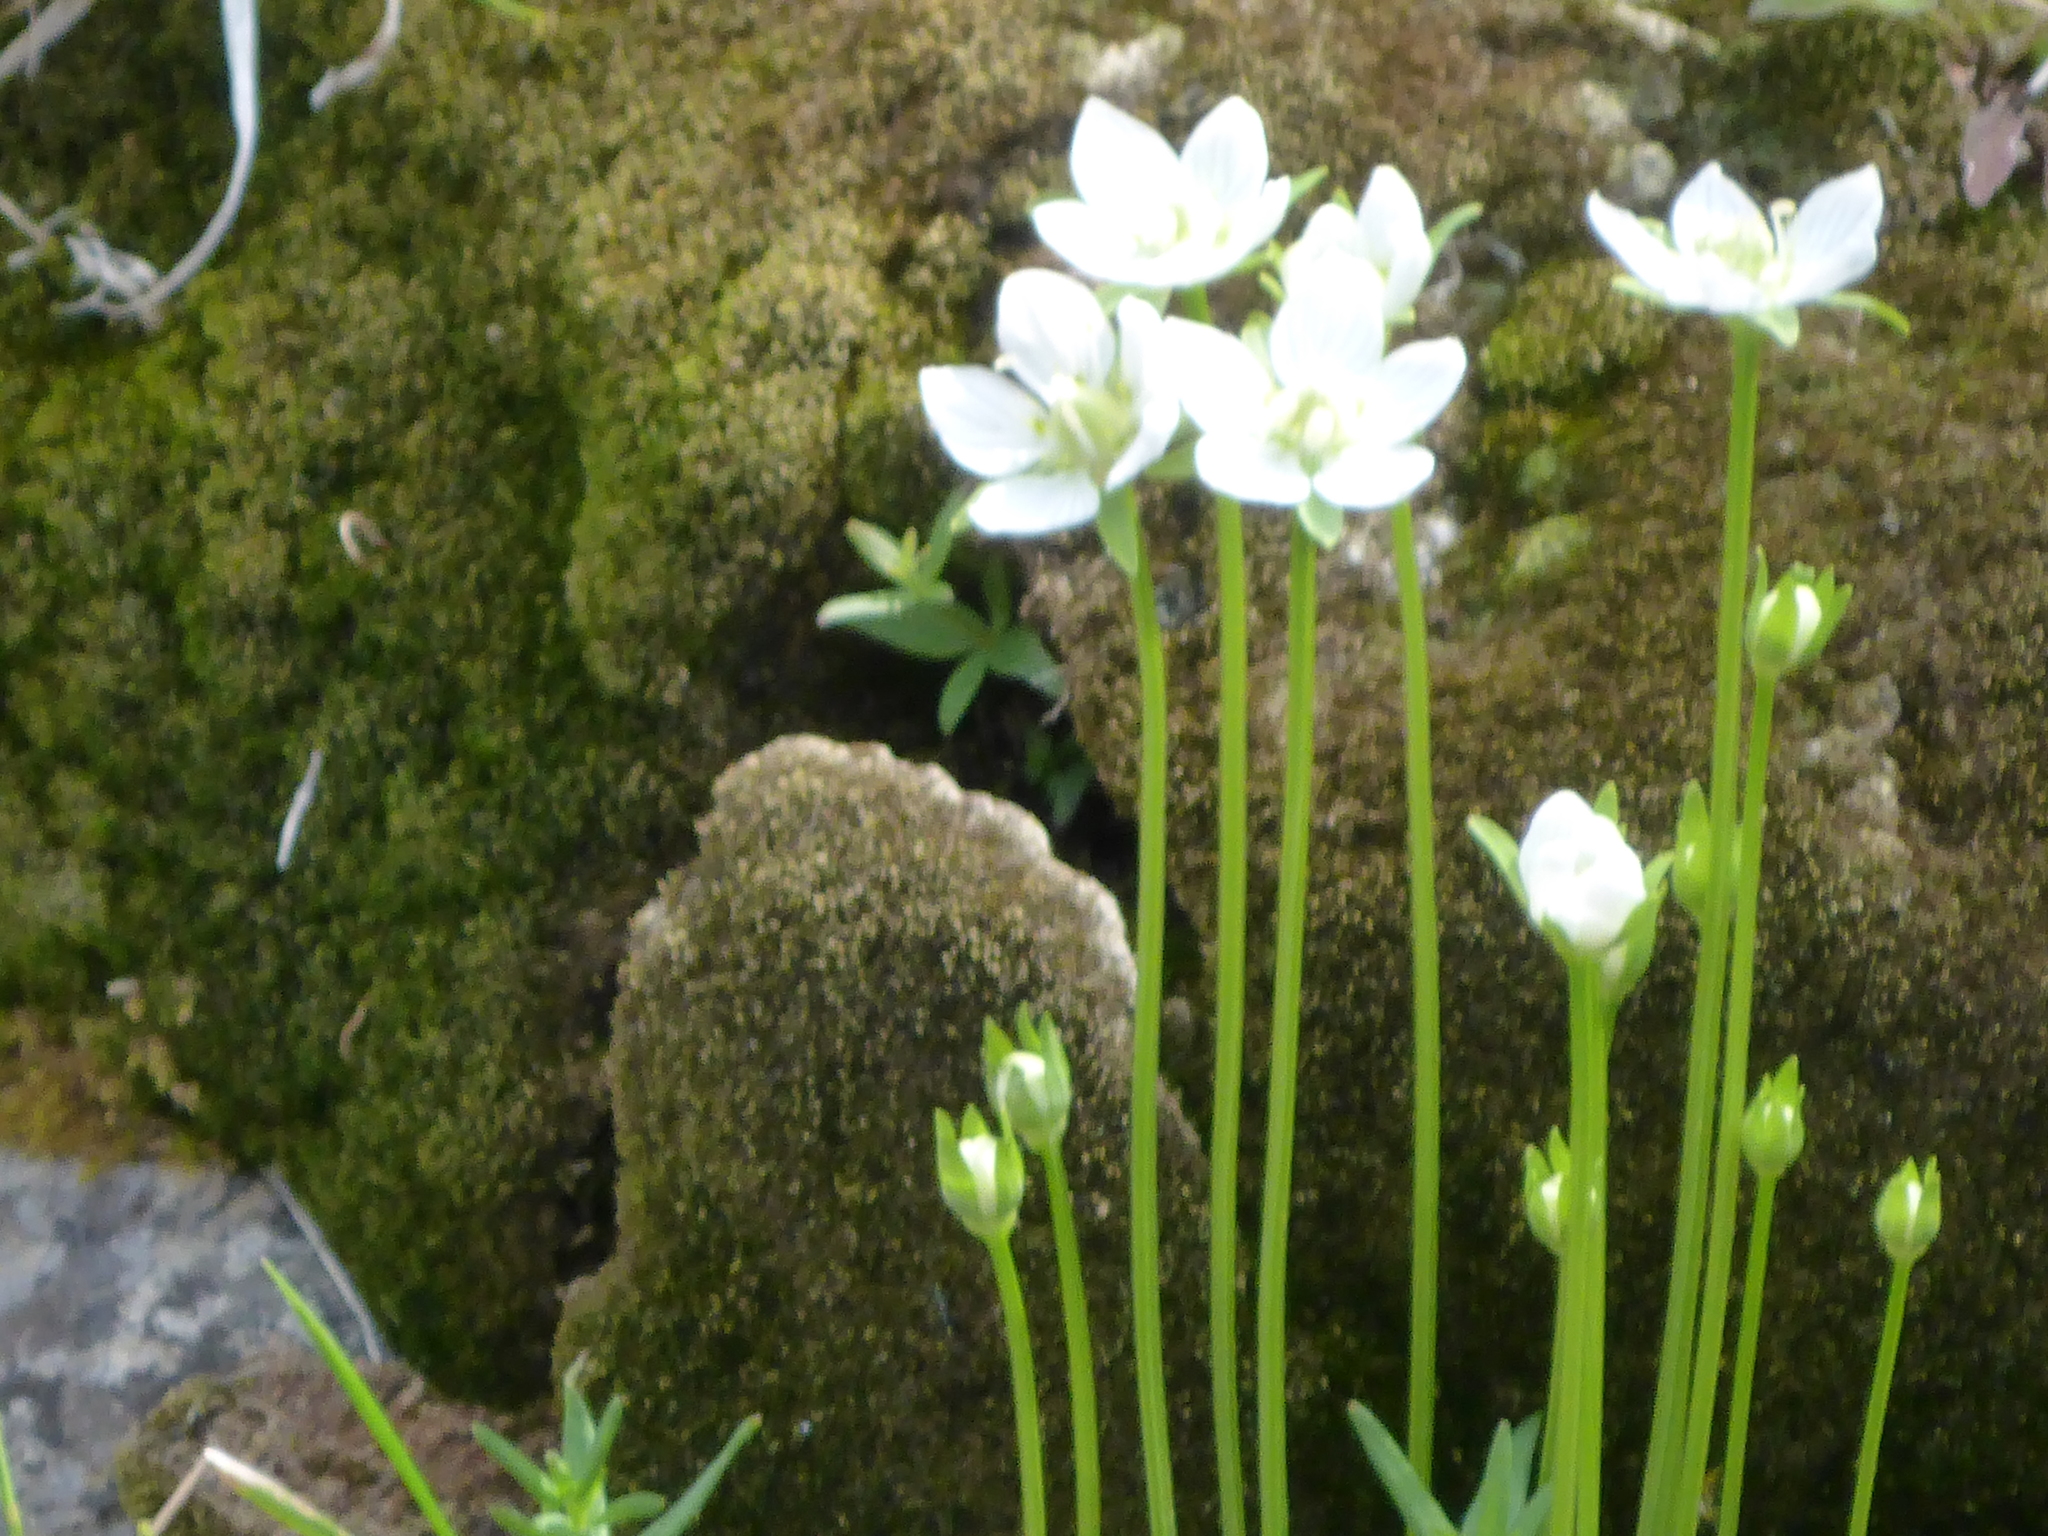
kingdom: Plantae
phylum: Tracheophyta
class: Magnoliopsida
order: Celastrales
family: Parnassiaceae
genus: Parnassia
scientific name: Parnassia palustris
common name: Grass-of-parnassus
